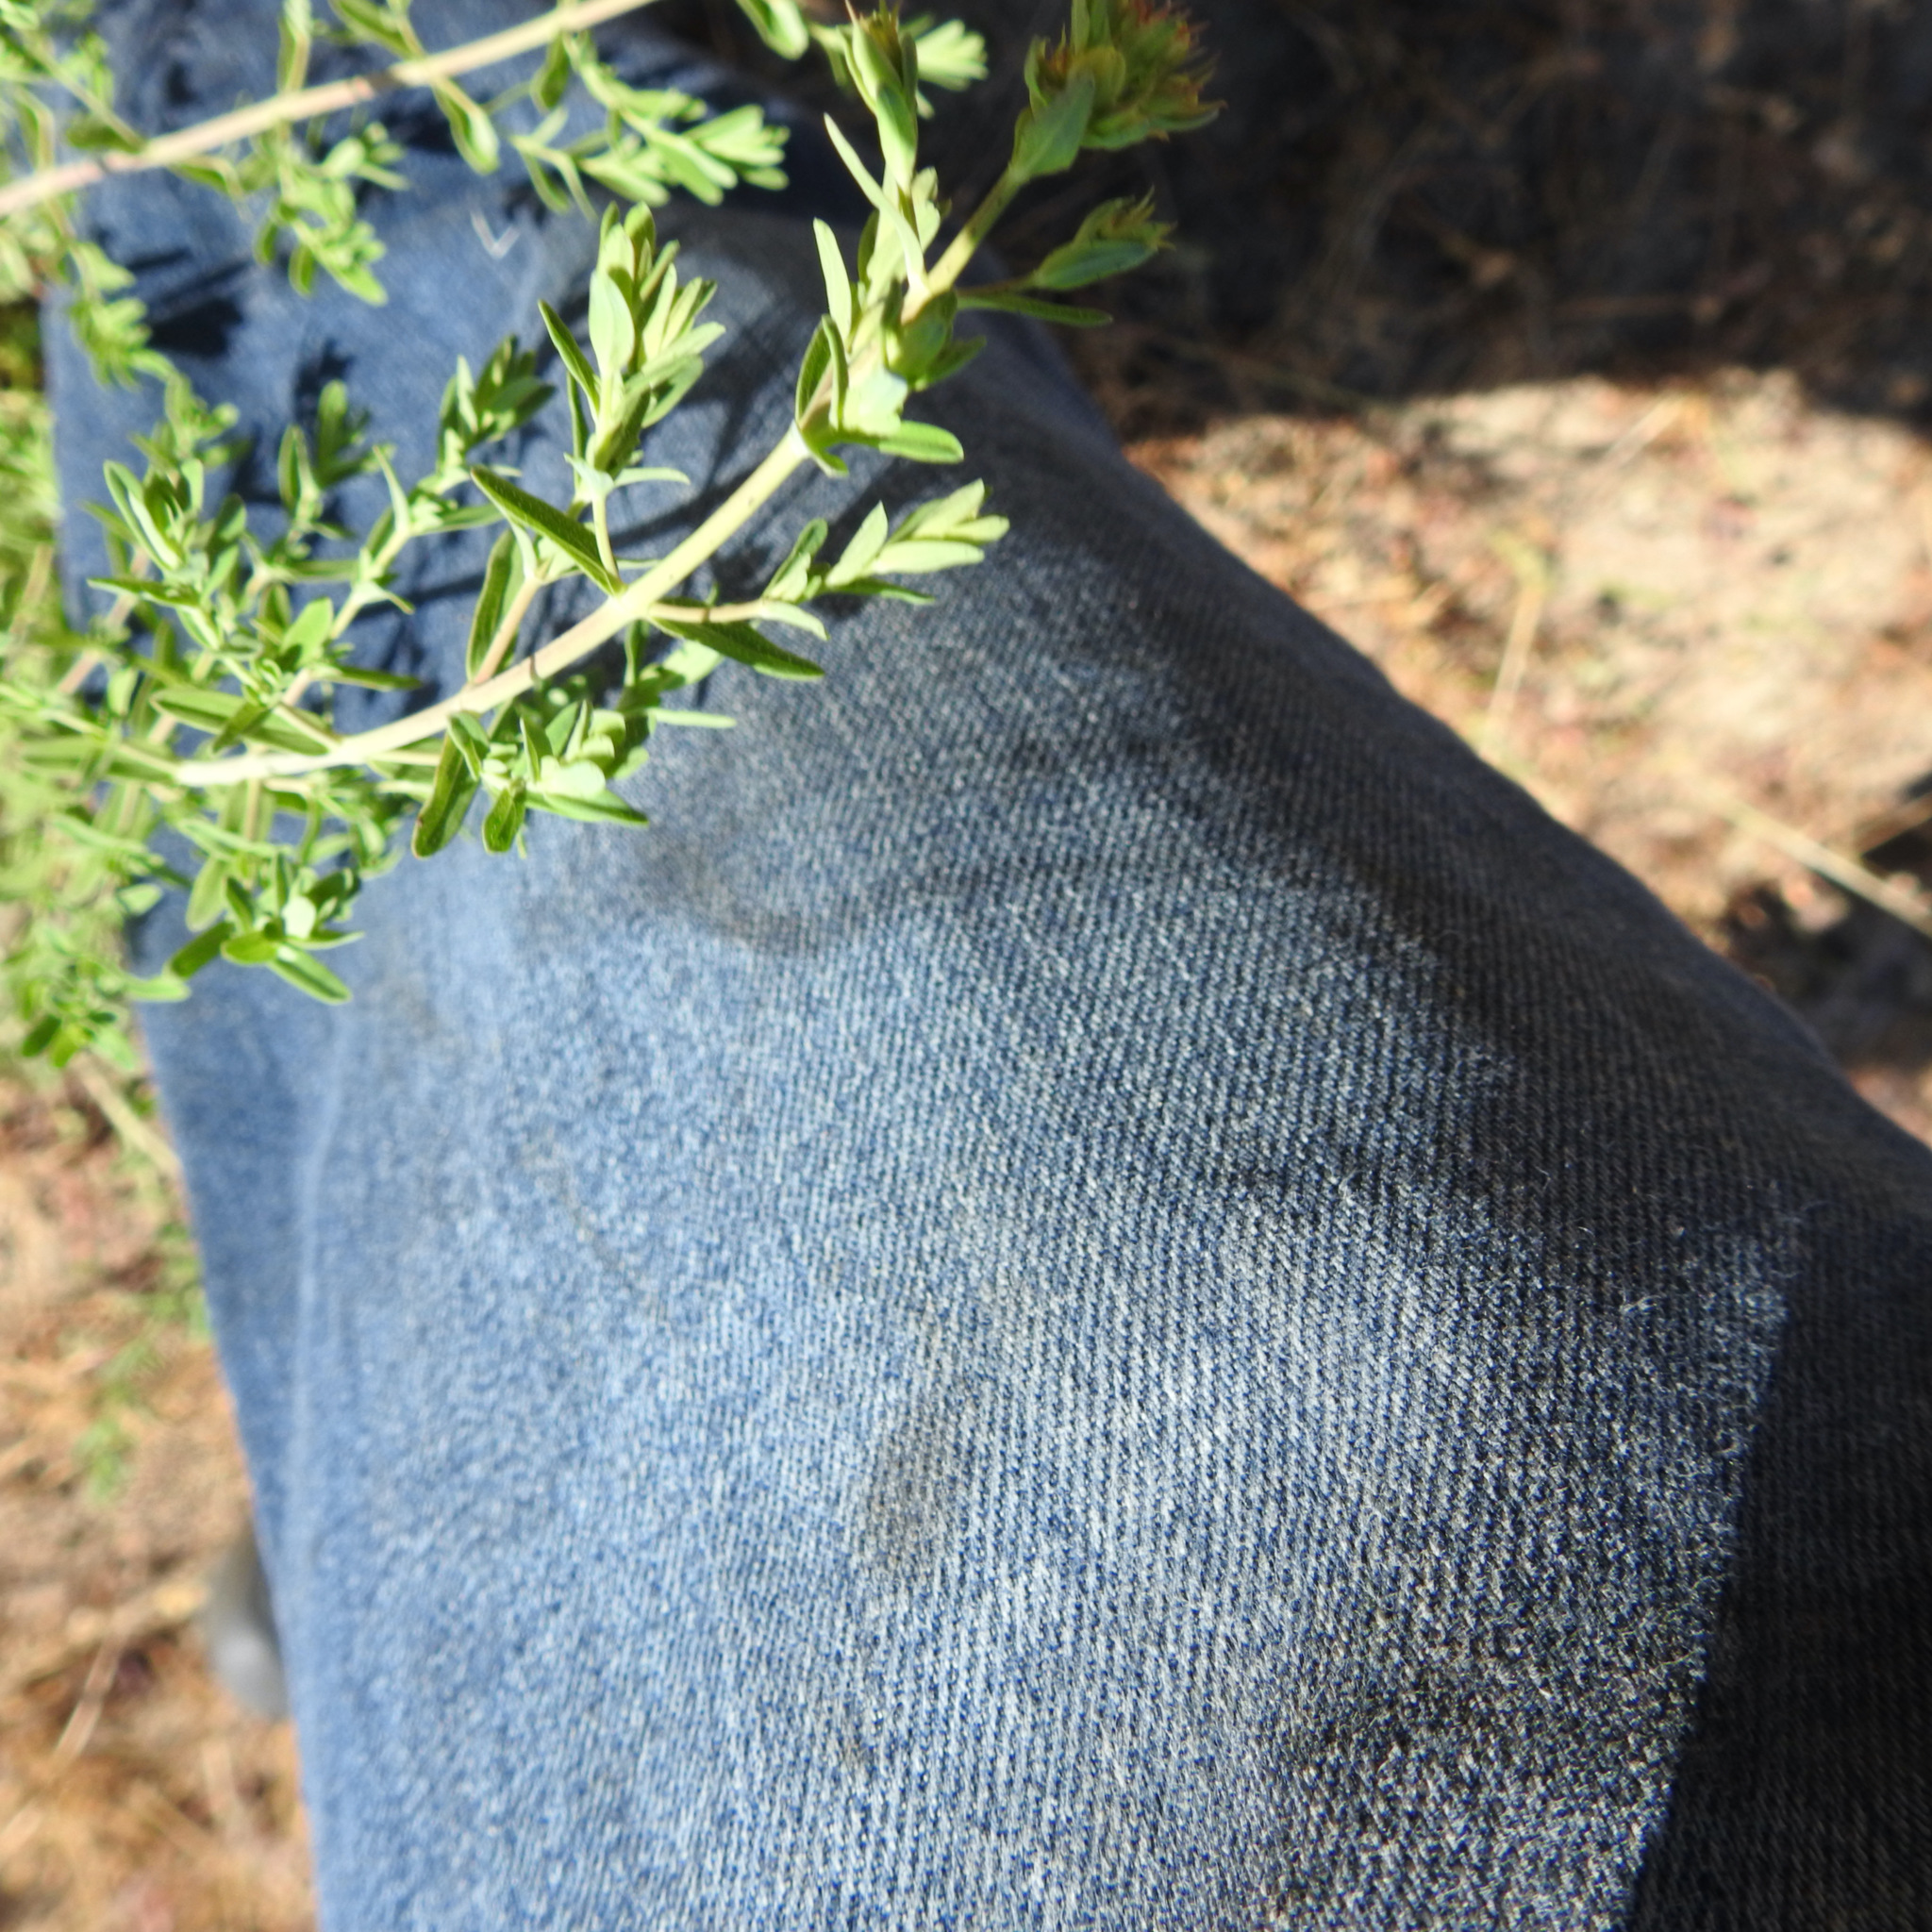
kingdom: Plantae
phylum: Tracheophyta
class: Magnoliopsida
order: Malpighiales
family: Hypericaceae
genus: Hypericum
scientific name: Hypericum perforatum
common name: Common st. johnswort
